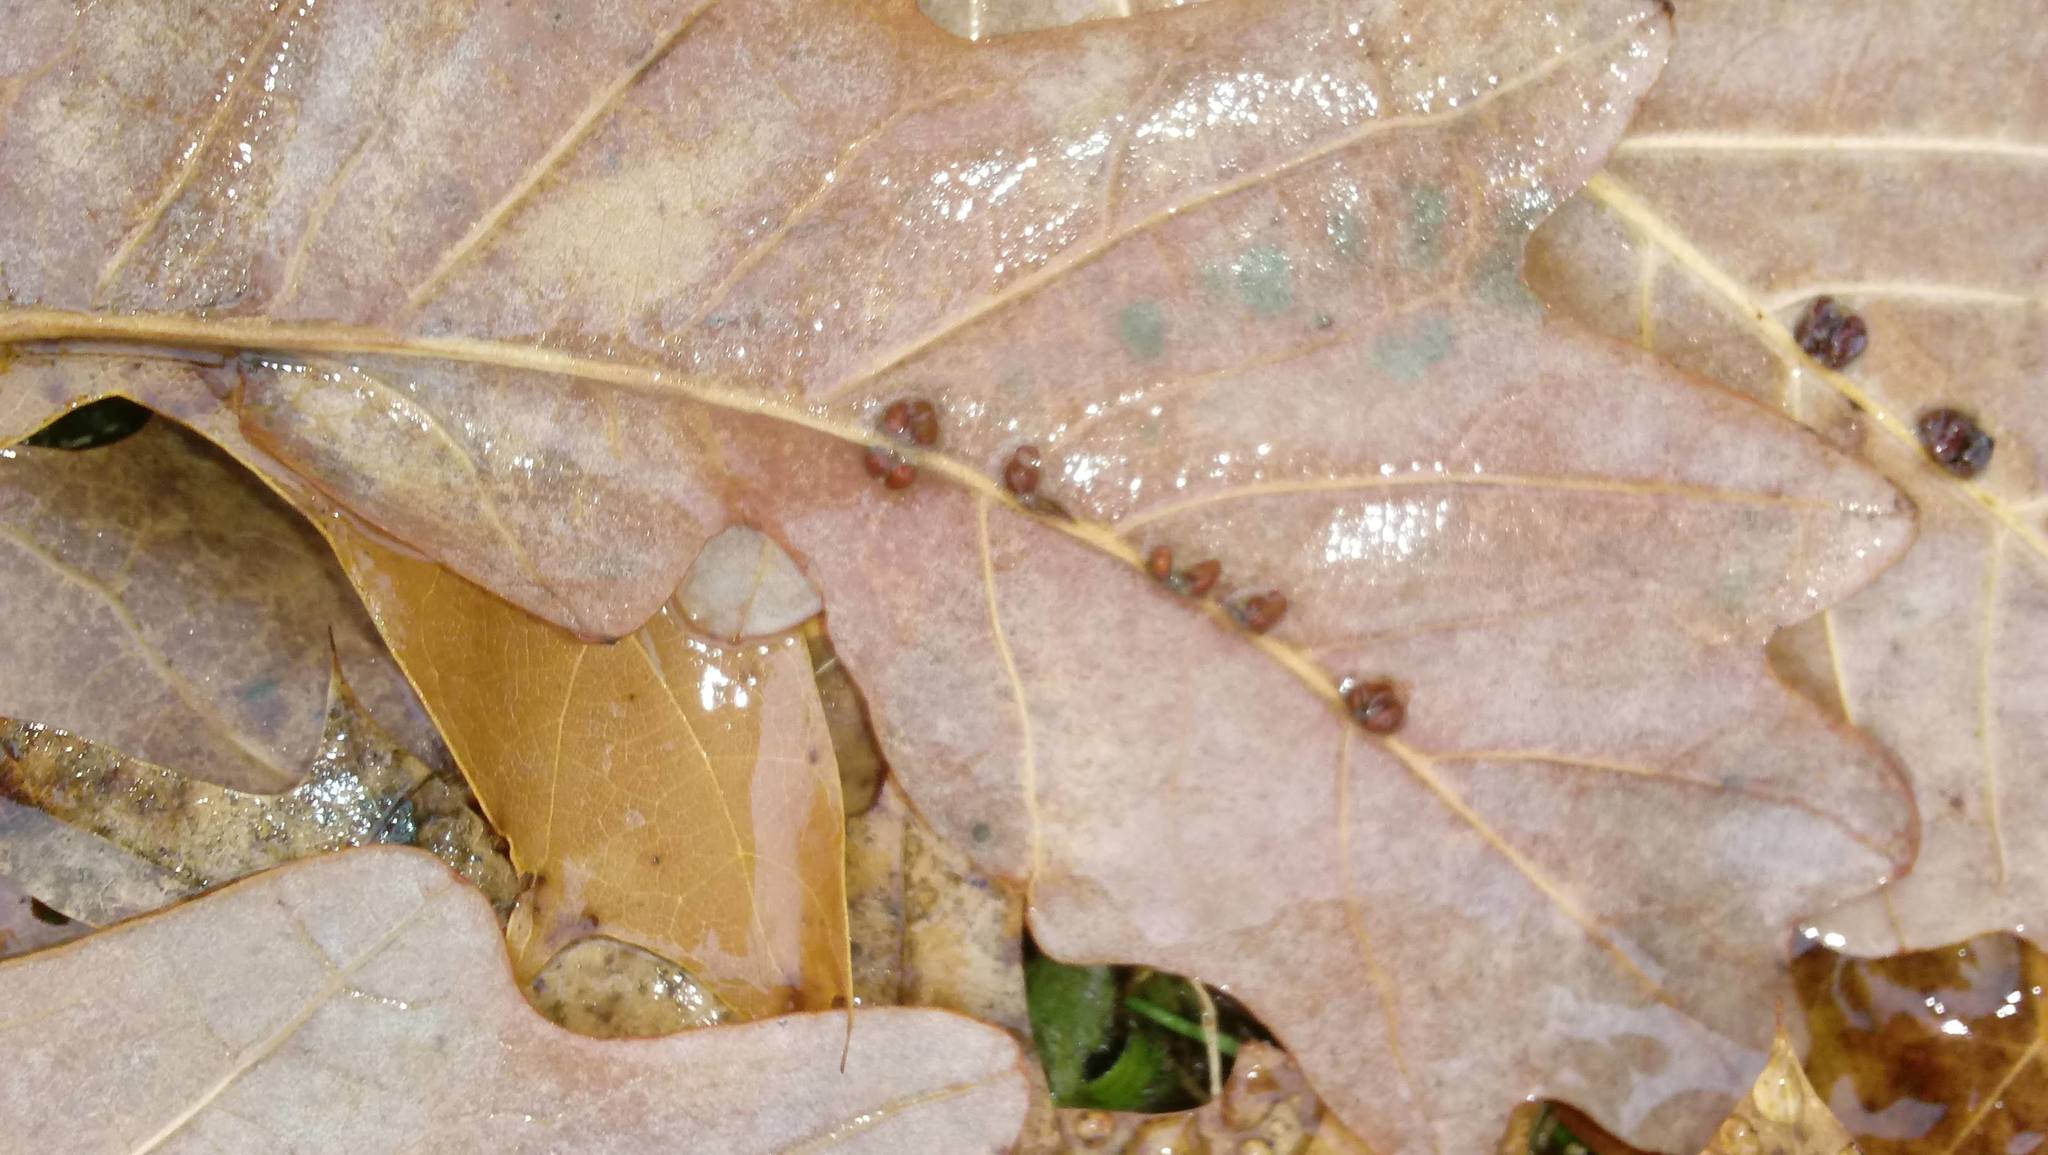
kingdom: Animalia
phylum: Arthropoda
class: Insecta
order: Hymenoptera
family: Cynipidae
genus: Andricus
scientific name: Andricus Druon ignotum
